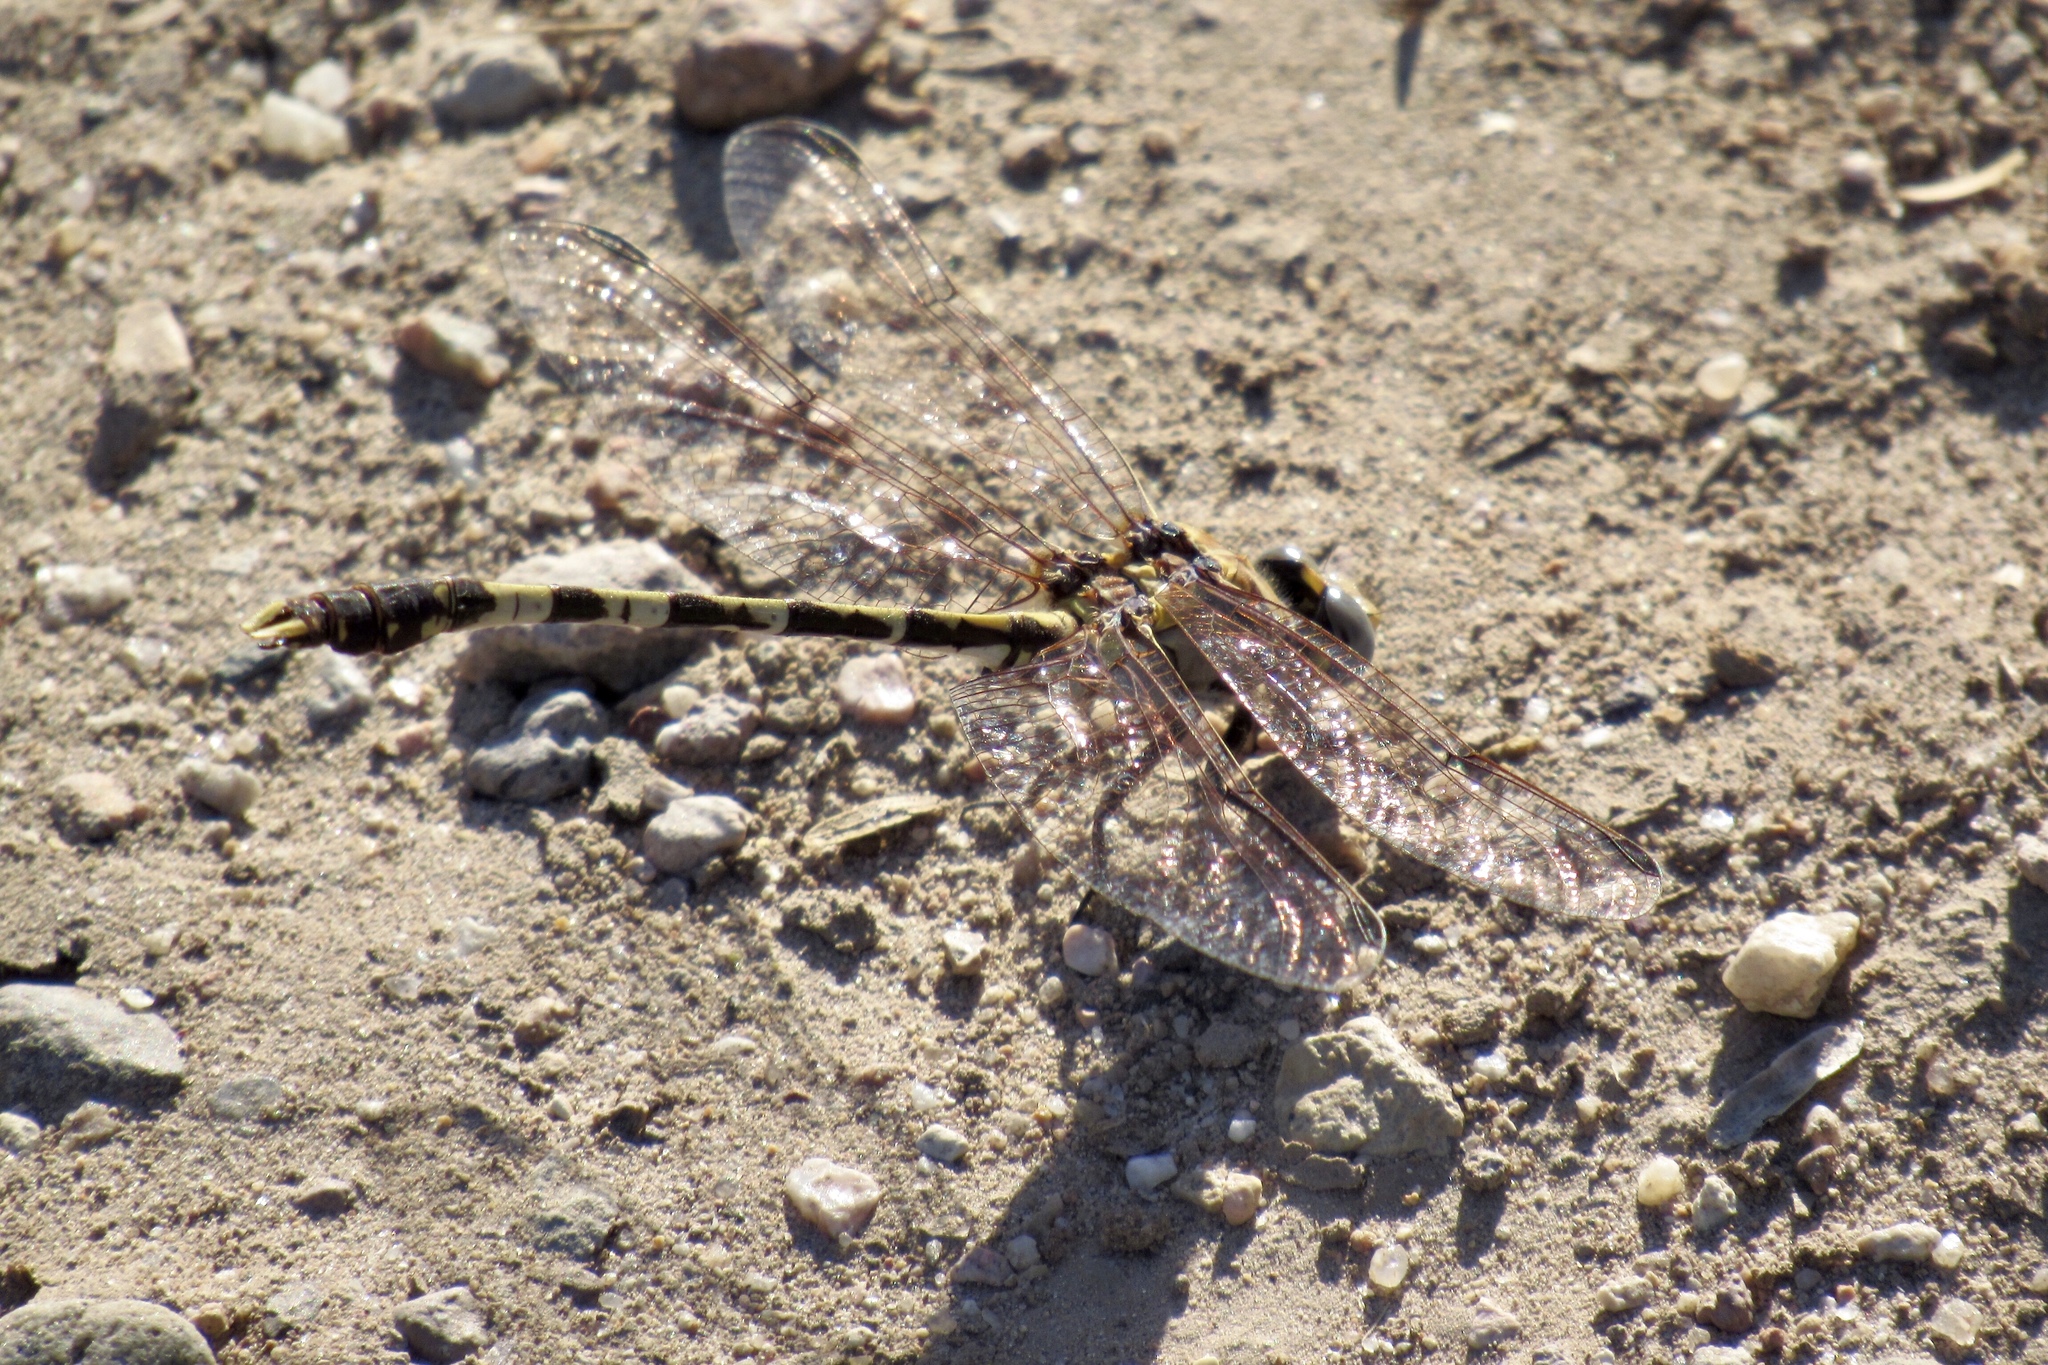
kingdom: Animalia
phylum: Arthropoda
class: Insecta
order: Odonata
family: Gomphidae
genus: Progomphus
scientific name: Progomphus borealis
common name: Gray sanddragon
